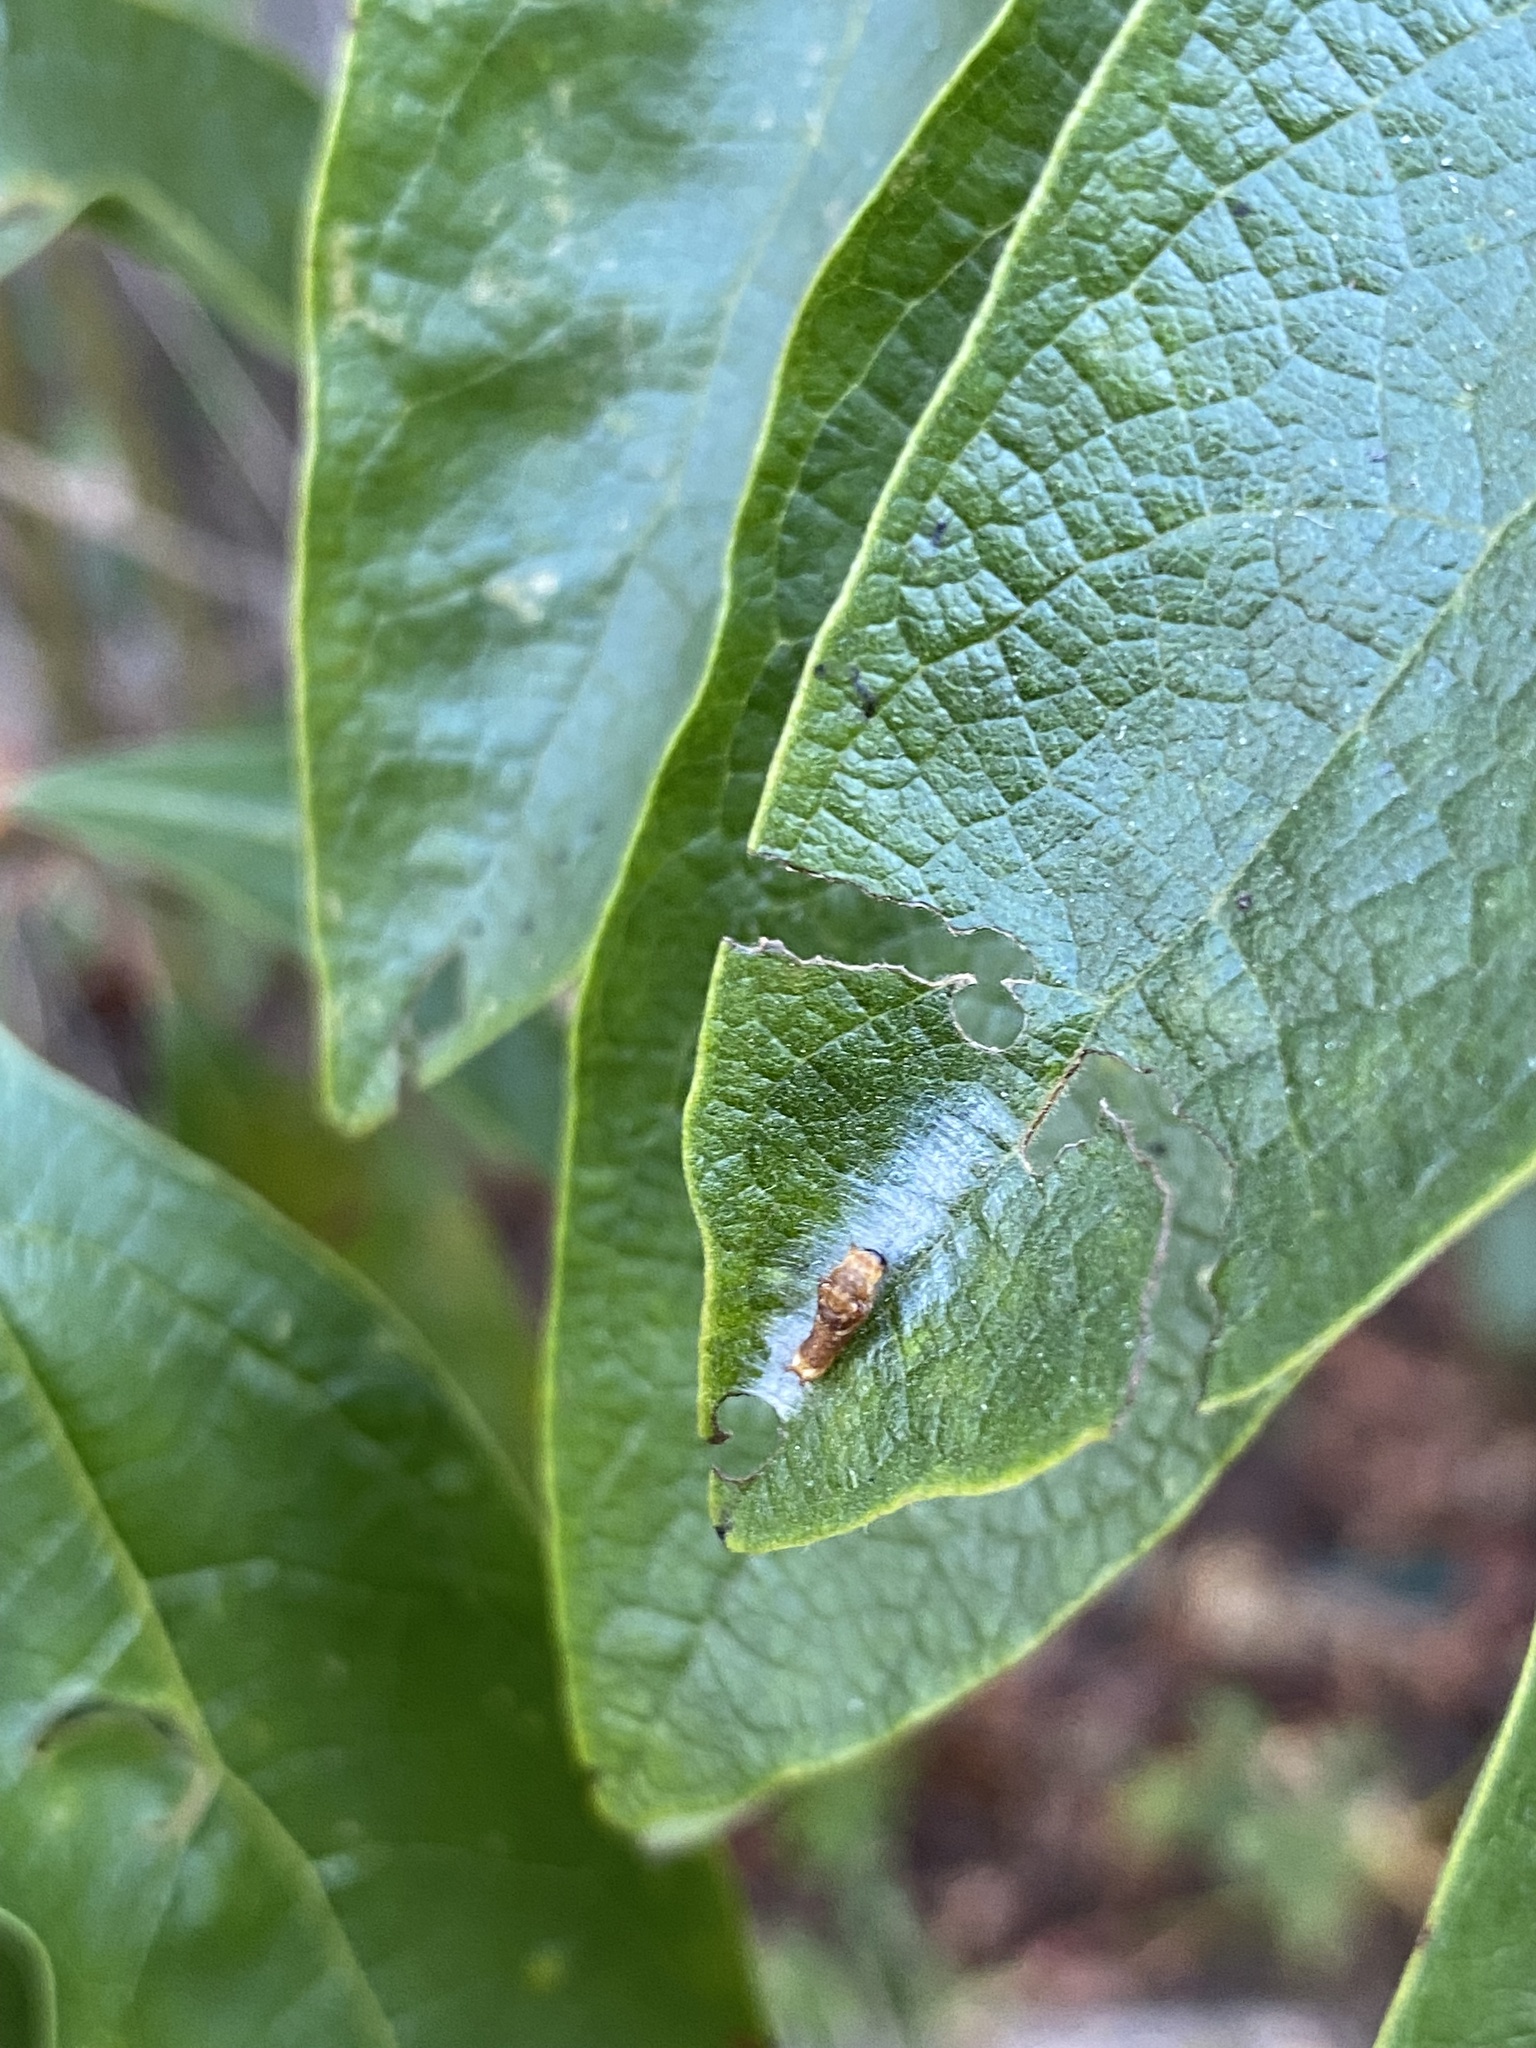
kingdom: Animalia
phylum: Arthropoda
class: Insecta
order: Lepidoptera
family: Papilionidae
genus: Papilio
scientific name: Papilio troilus
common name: Spicebush swallowtail
